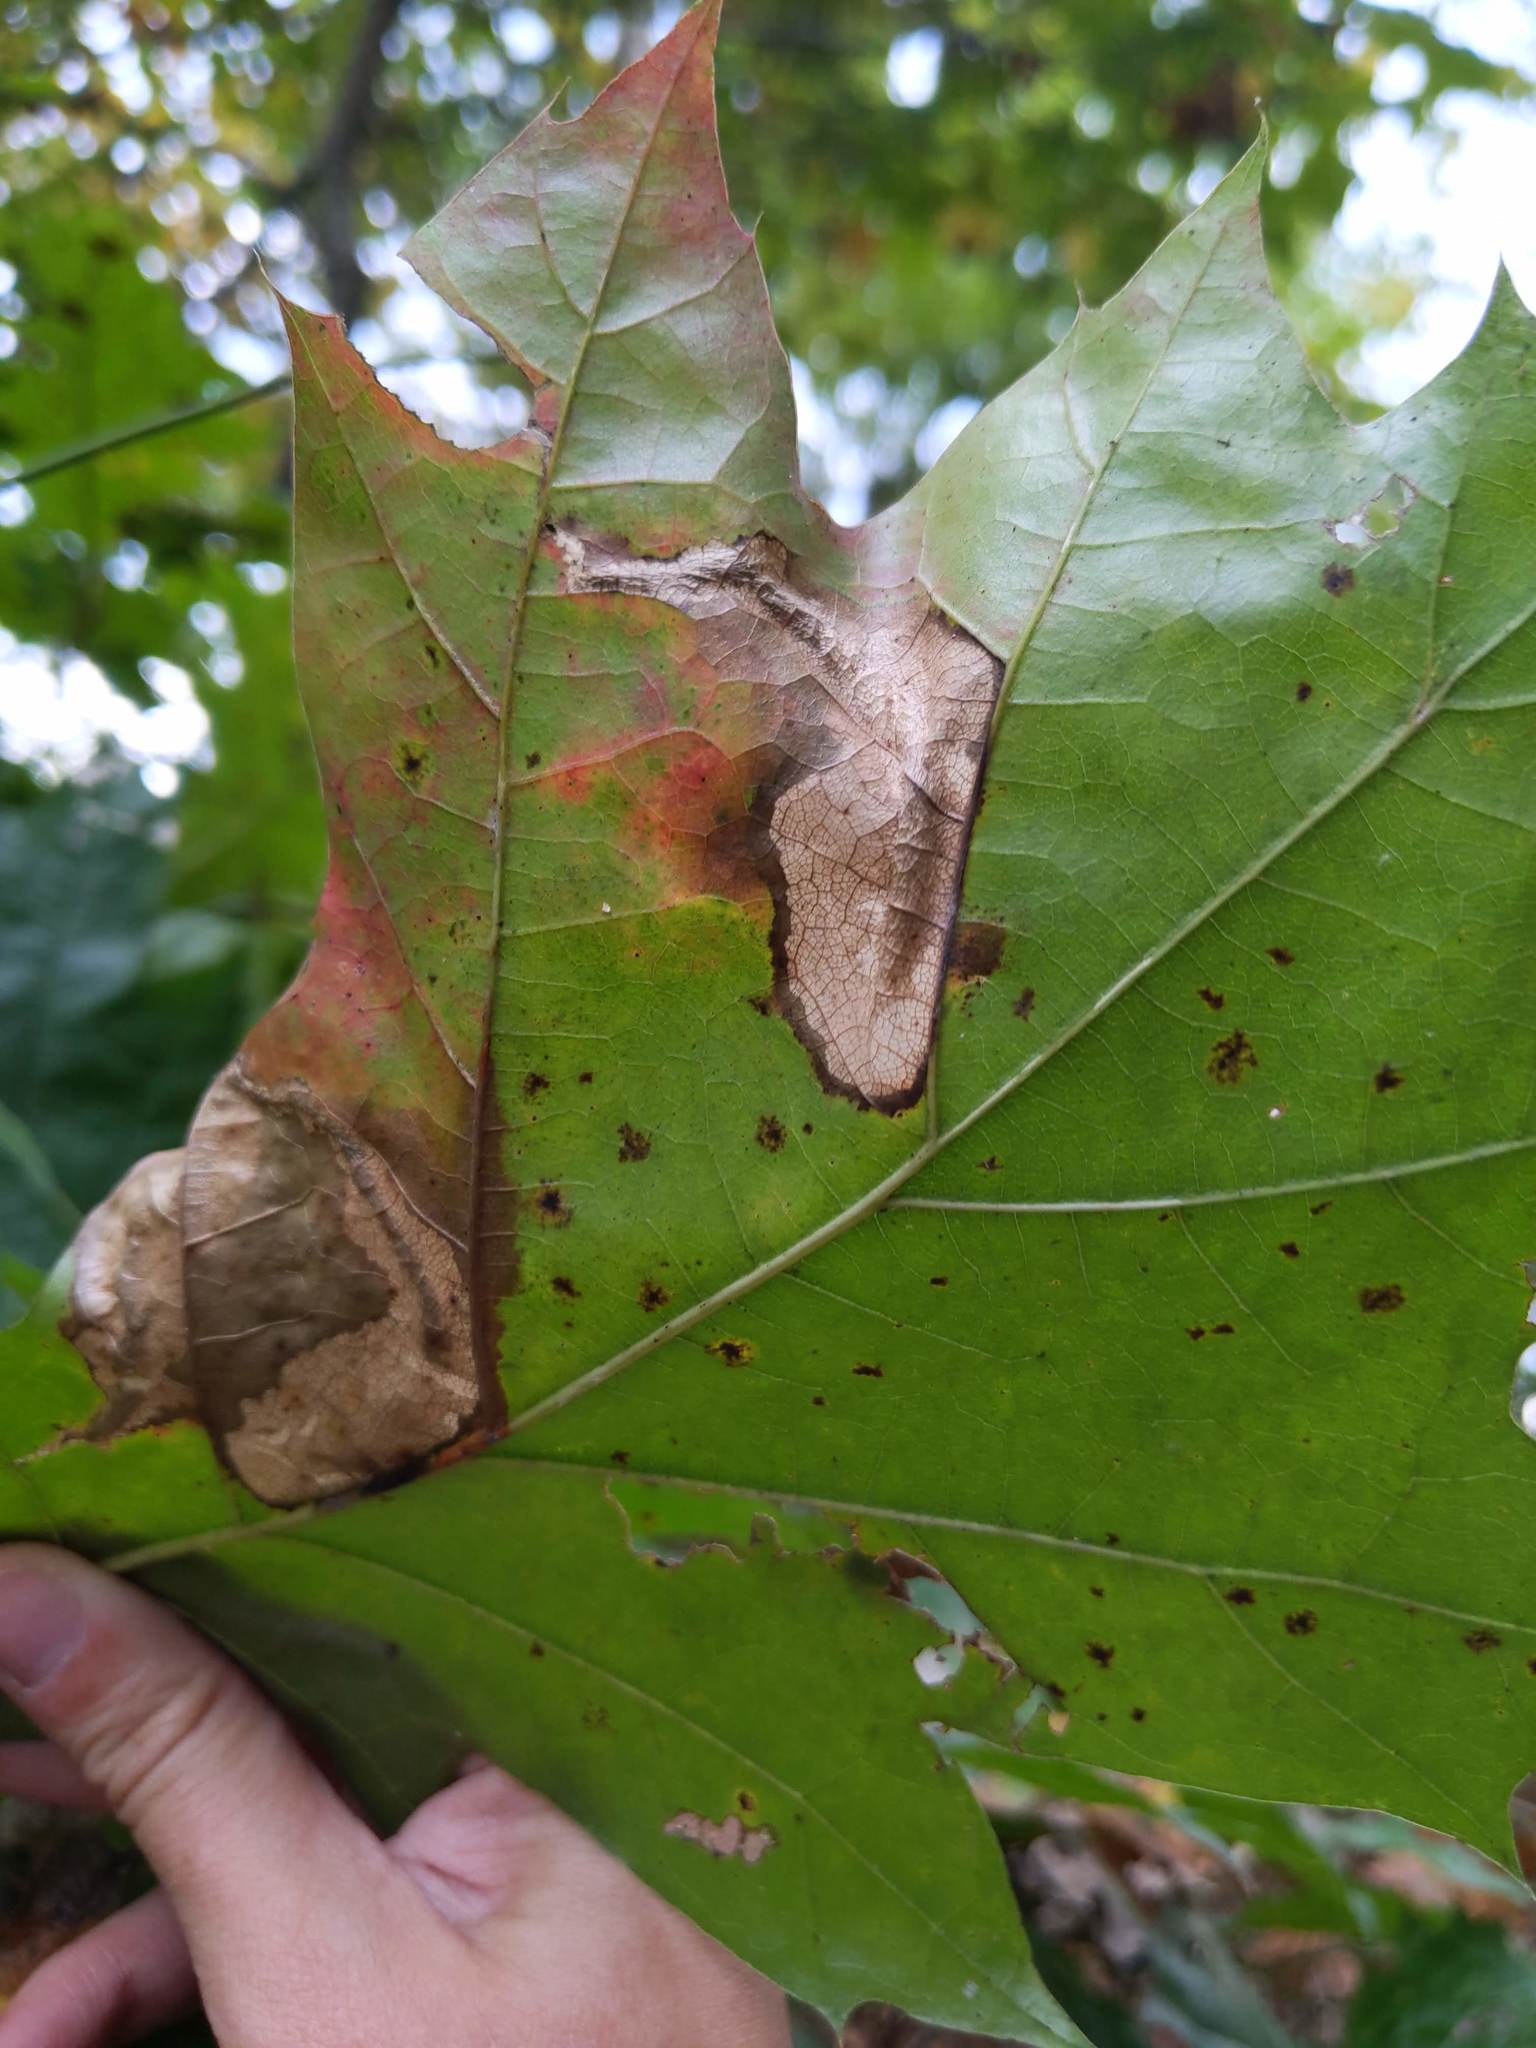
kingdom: Animalia
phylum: Arthropoda
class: Insecta
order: Lepidoptera
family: Tischeriidae
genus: Coptotriche
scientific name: Coptotriche castaneaeella
